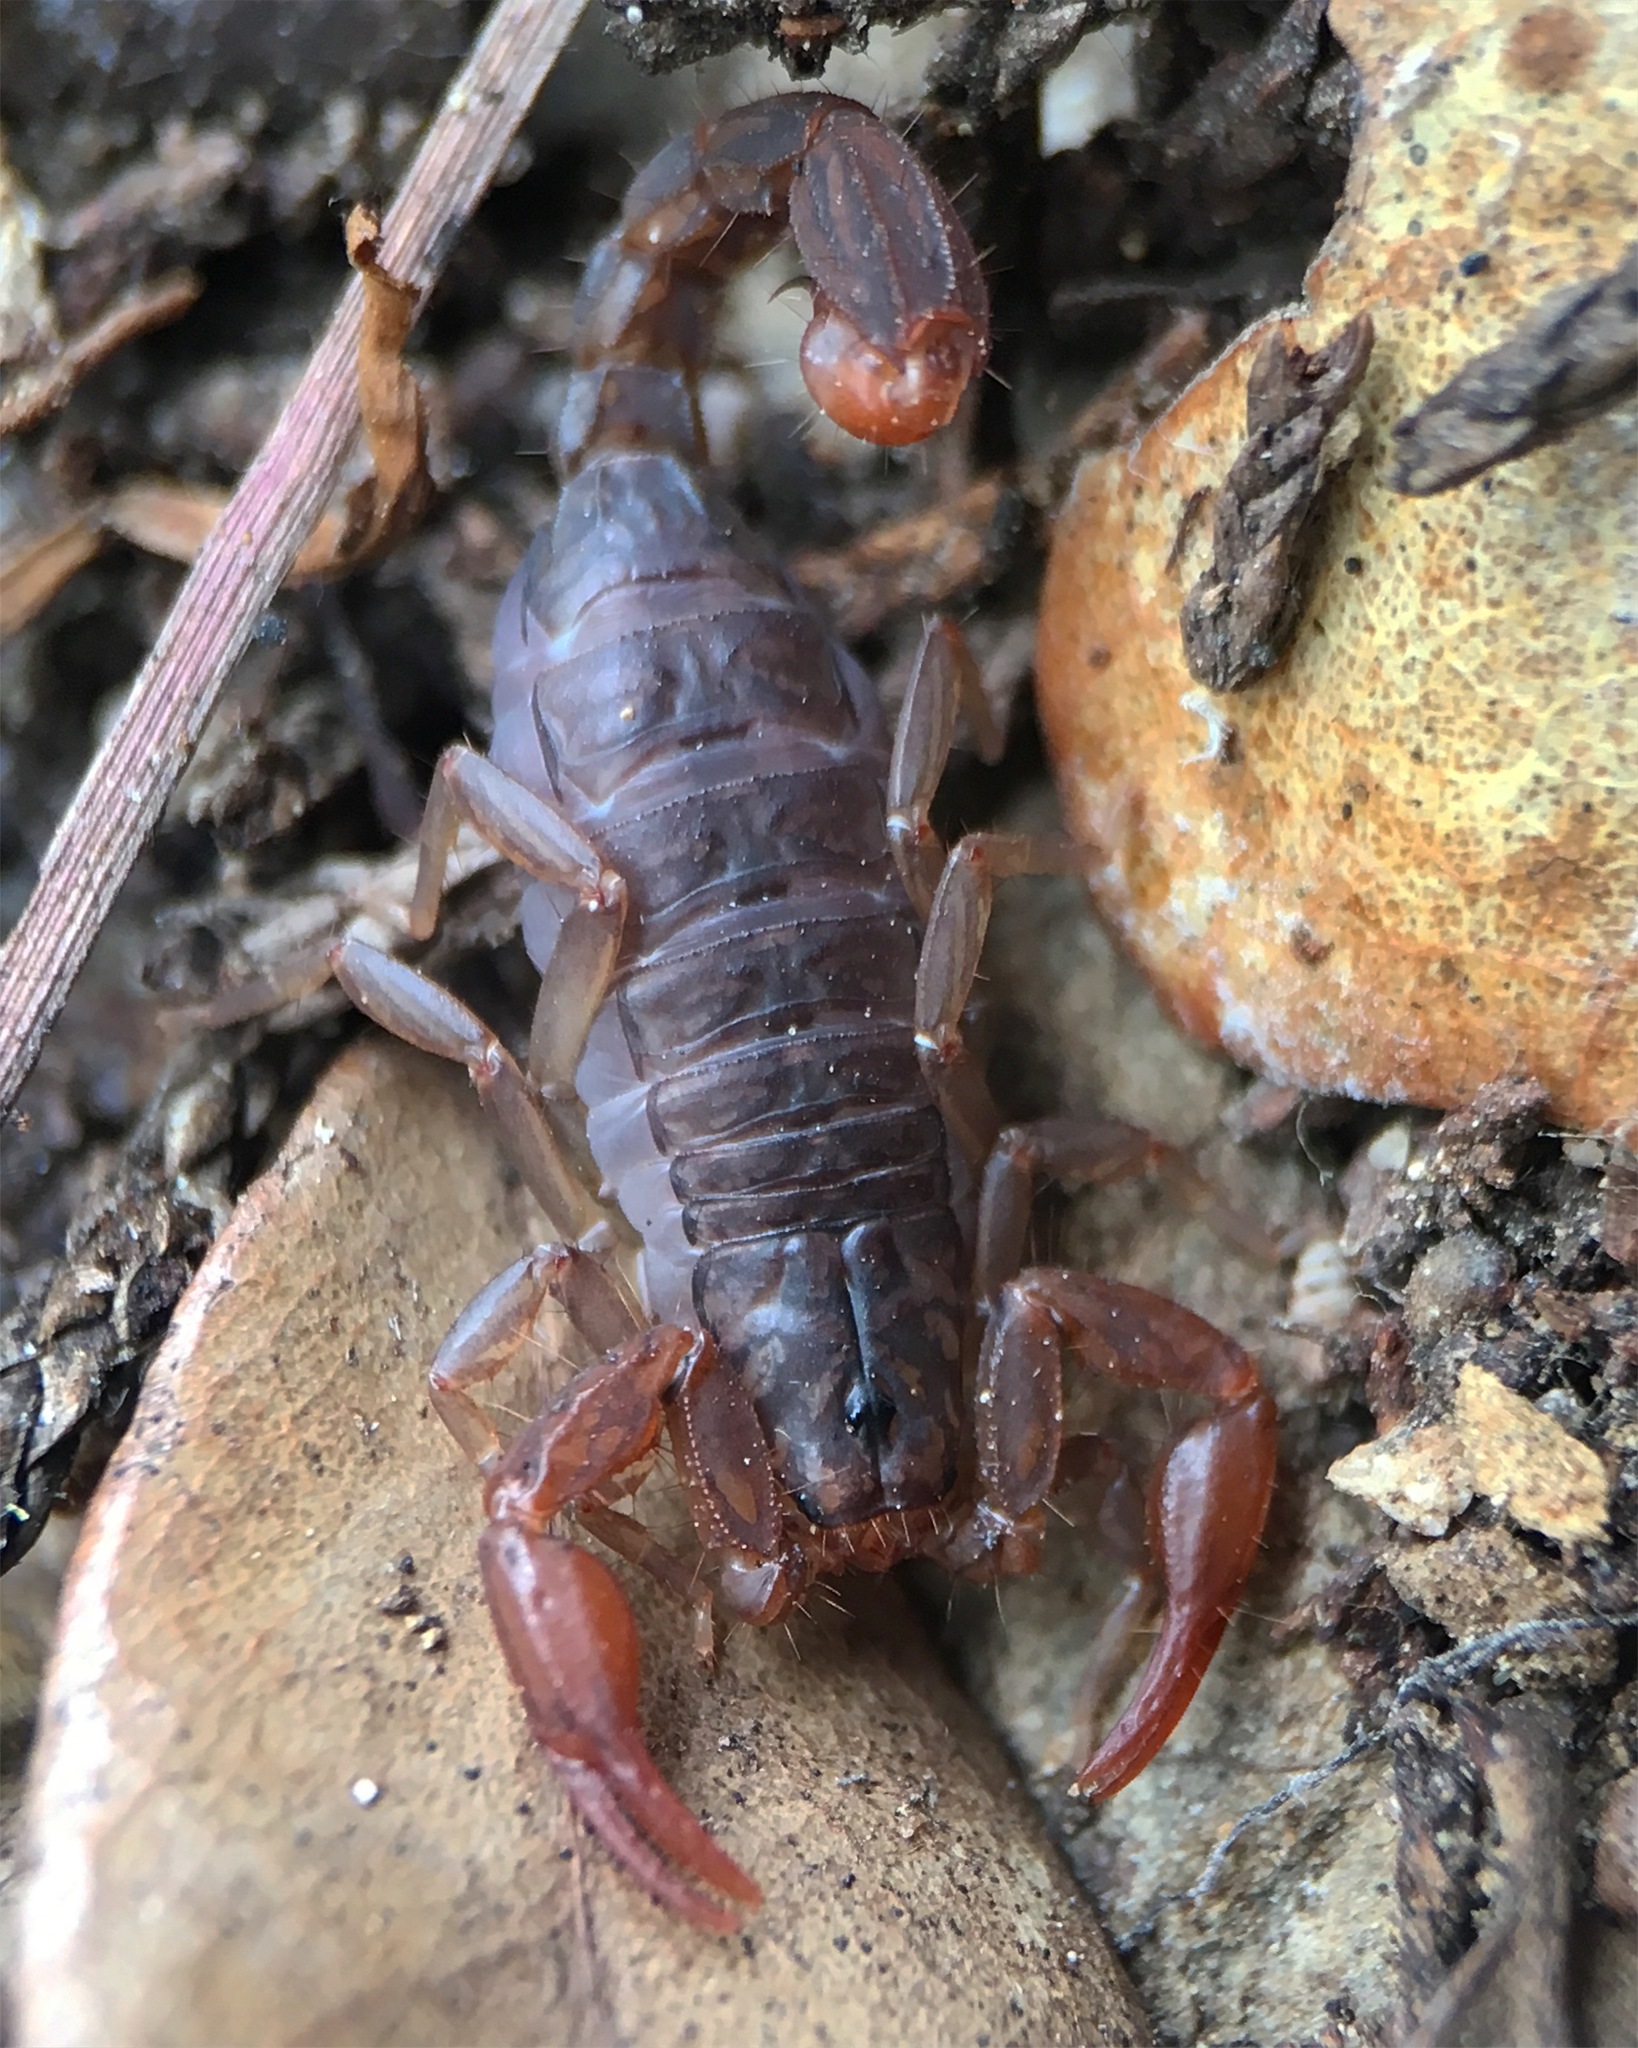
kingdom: Animalia
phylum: Arthropoda
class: Arachnida
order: Scorpiones
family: Vaejovidae
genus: Pseudouroctonus
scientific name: Pseudouroctonus reddelli
